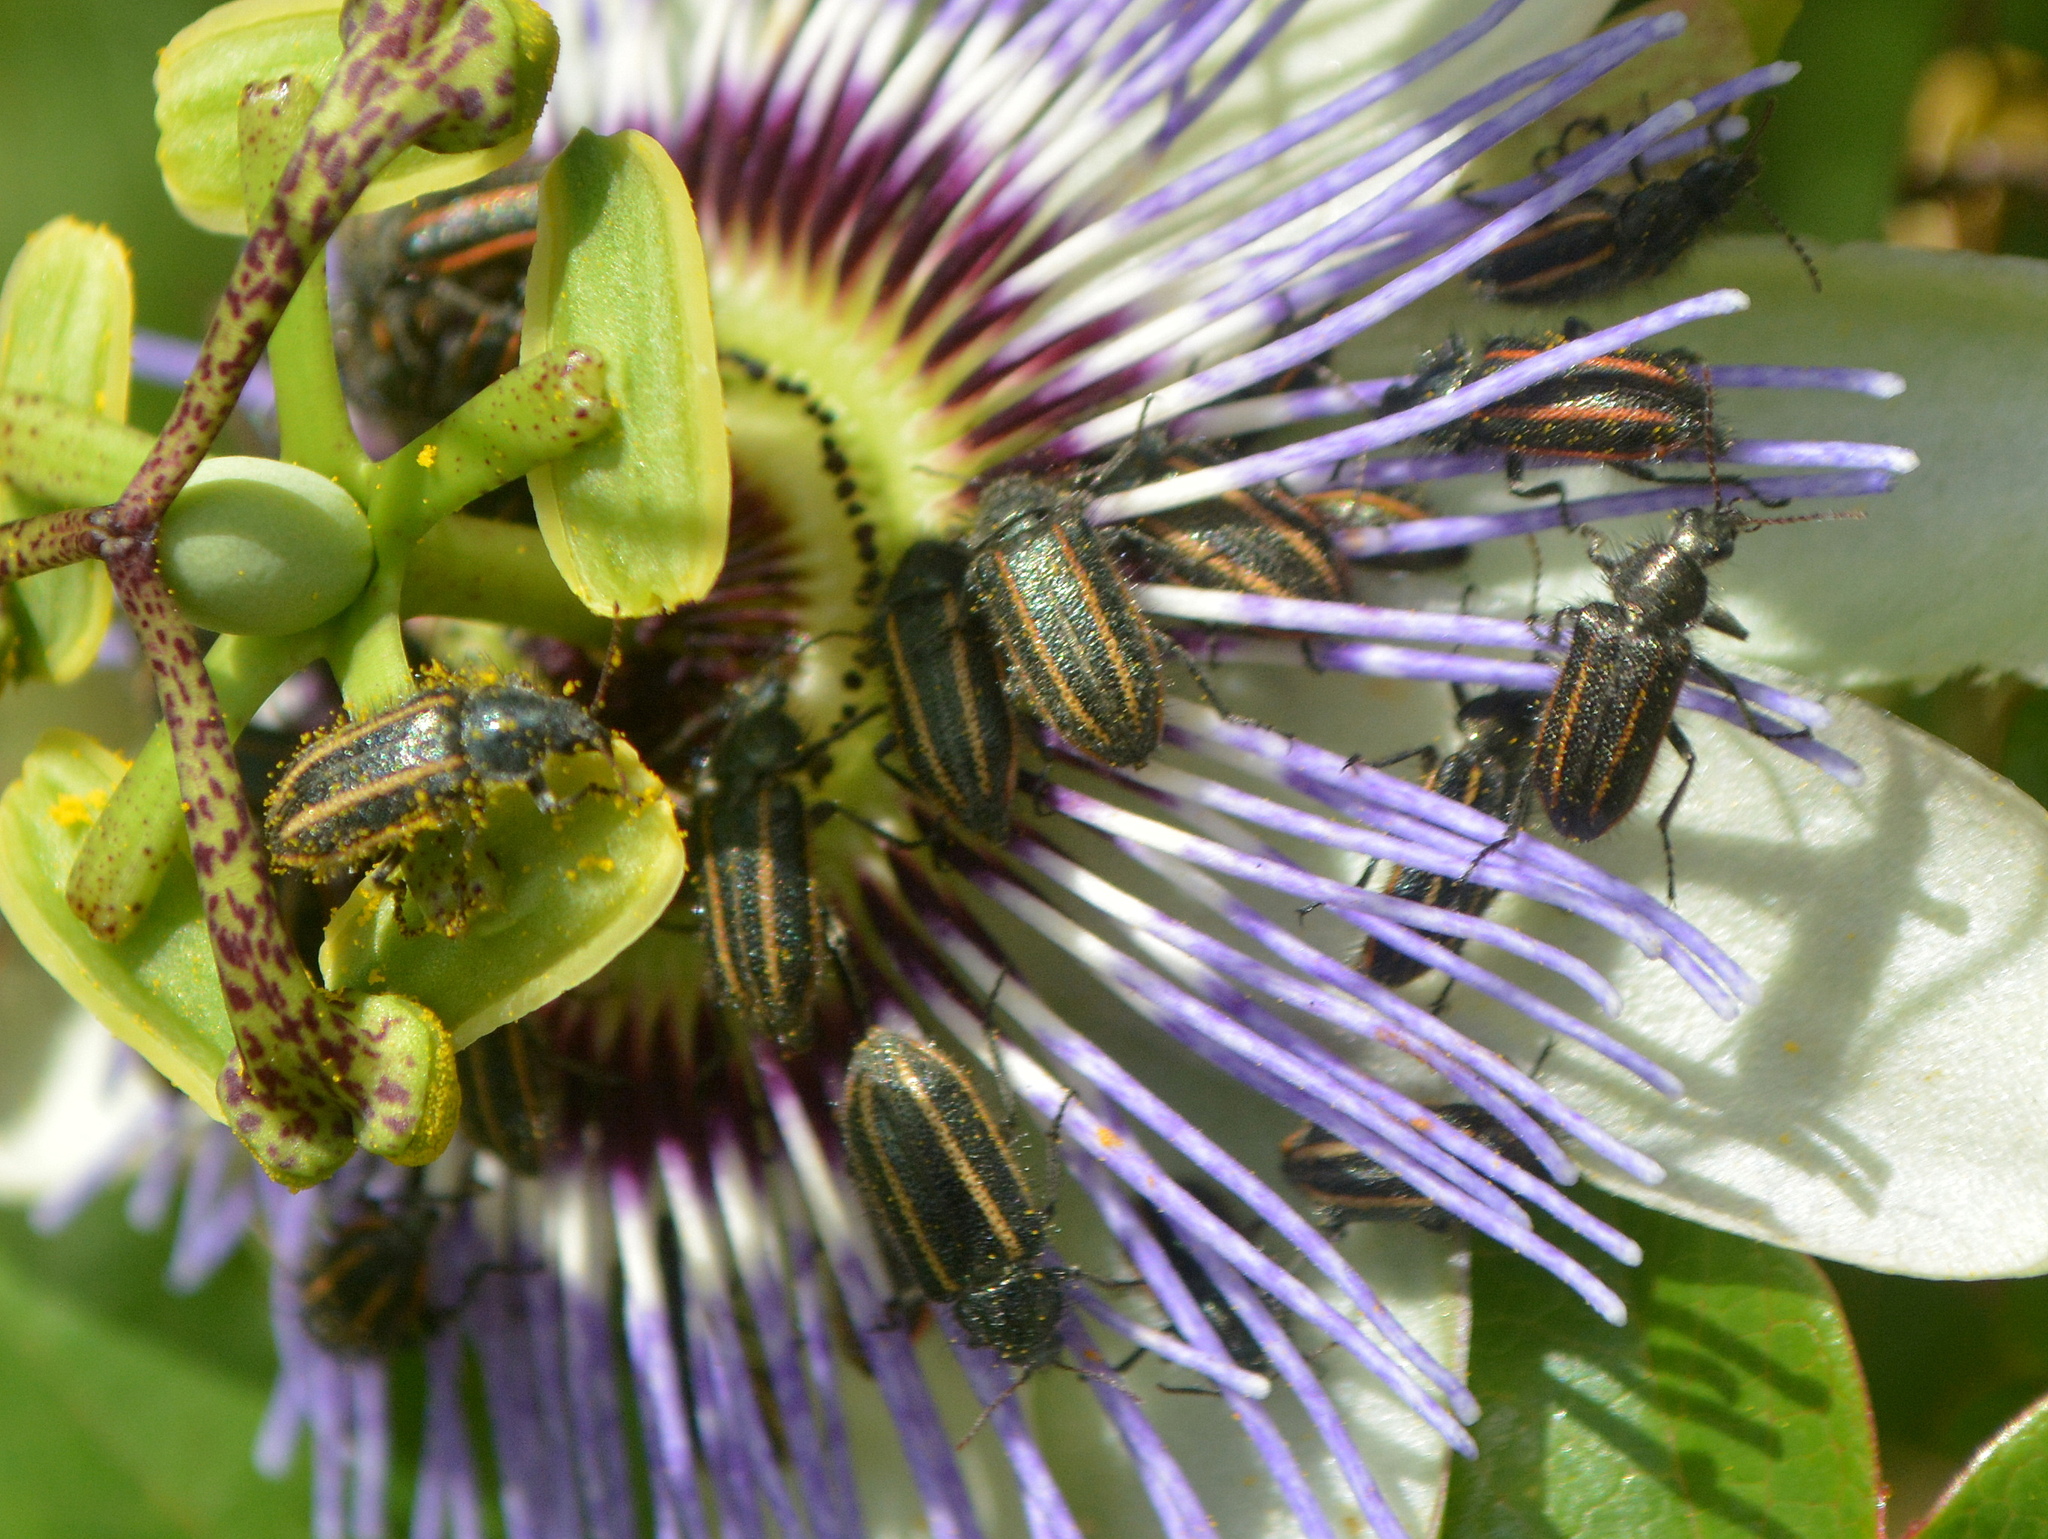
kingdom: Animalia
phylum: Arthropoda
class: Insecta
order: Coleoptera
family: Melyridae
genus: Astylus
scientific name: Astylus
